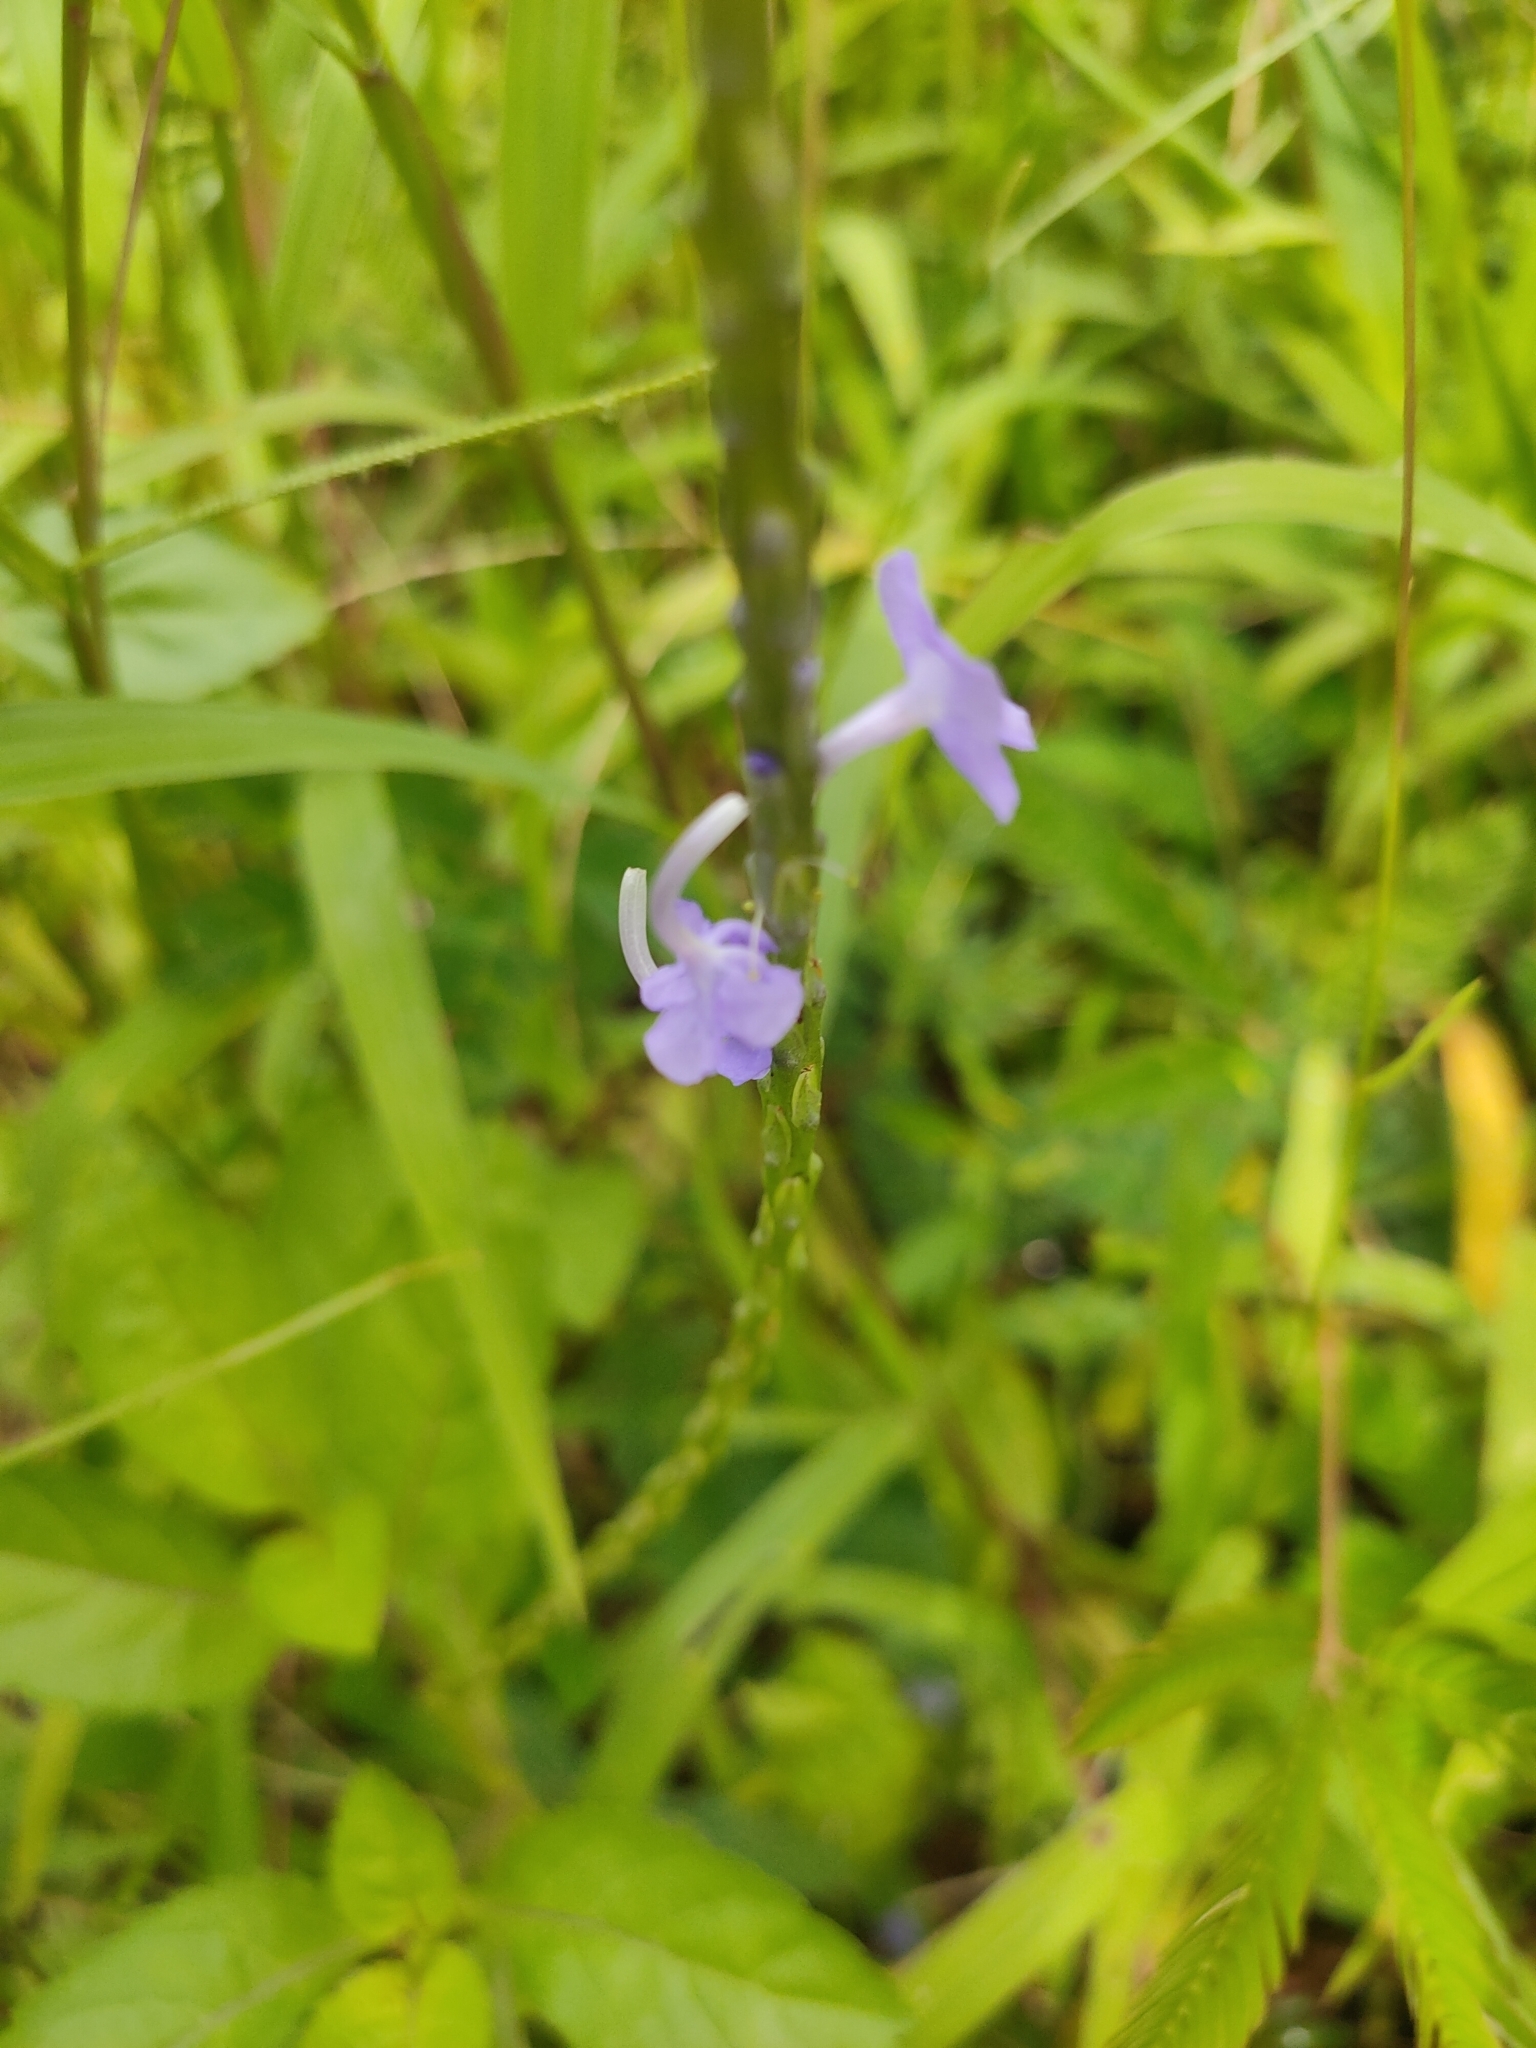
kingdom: Plantae
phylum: Tracheophyta
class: Magnoliopsida
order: Lamiales
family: Verbenaceae
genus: Stachytarpheta
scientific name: Stachytarpheta jamaicensis
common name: Light-blue snakeweed
